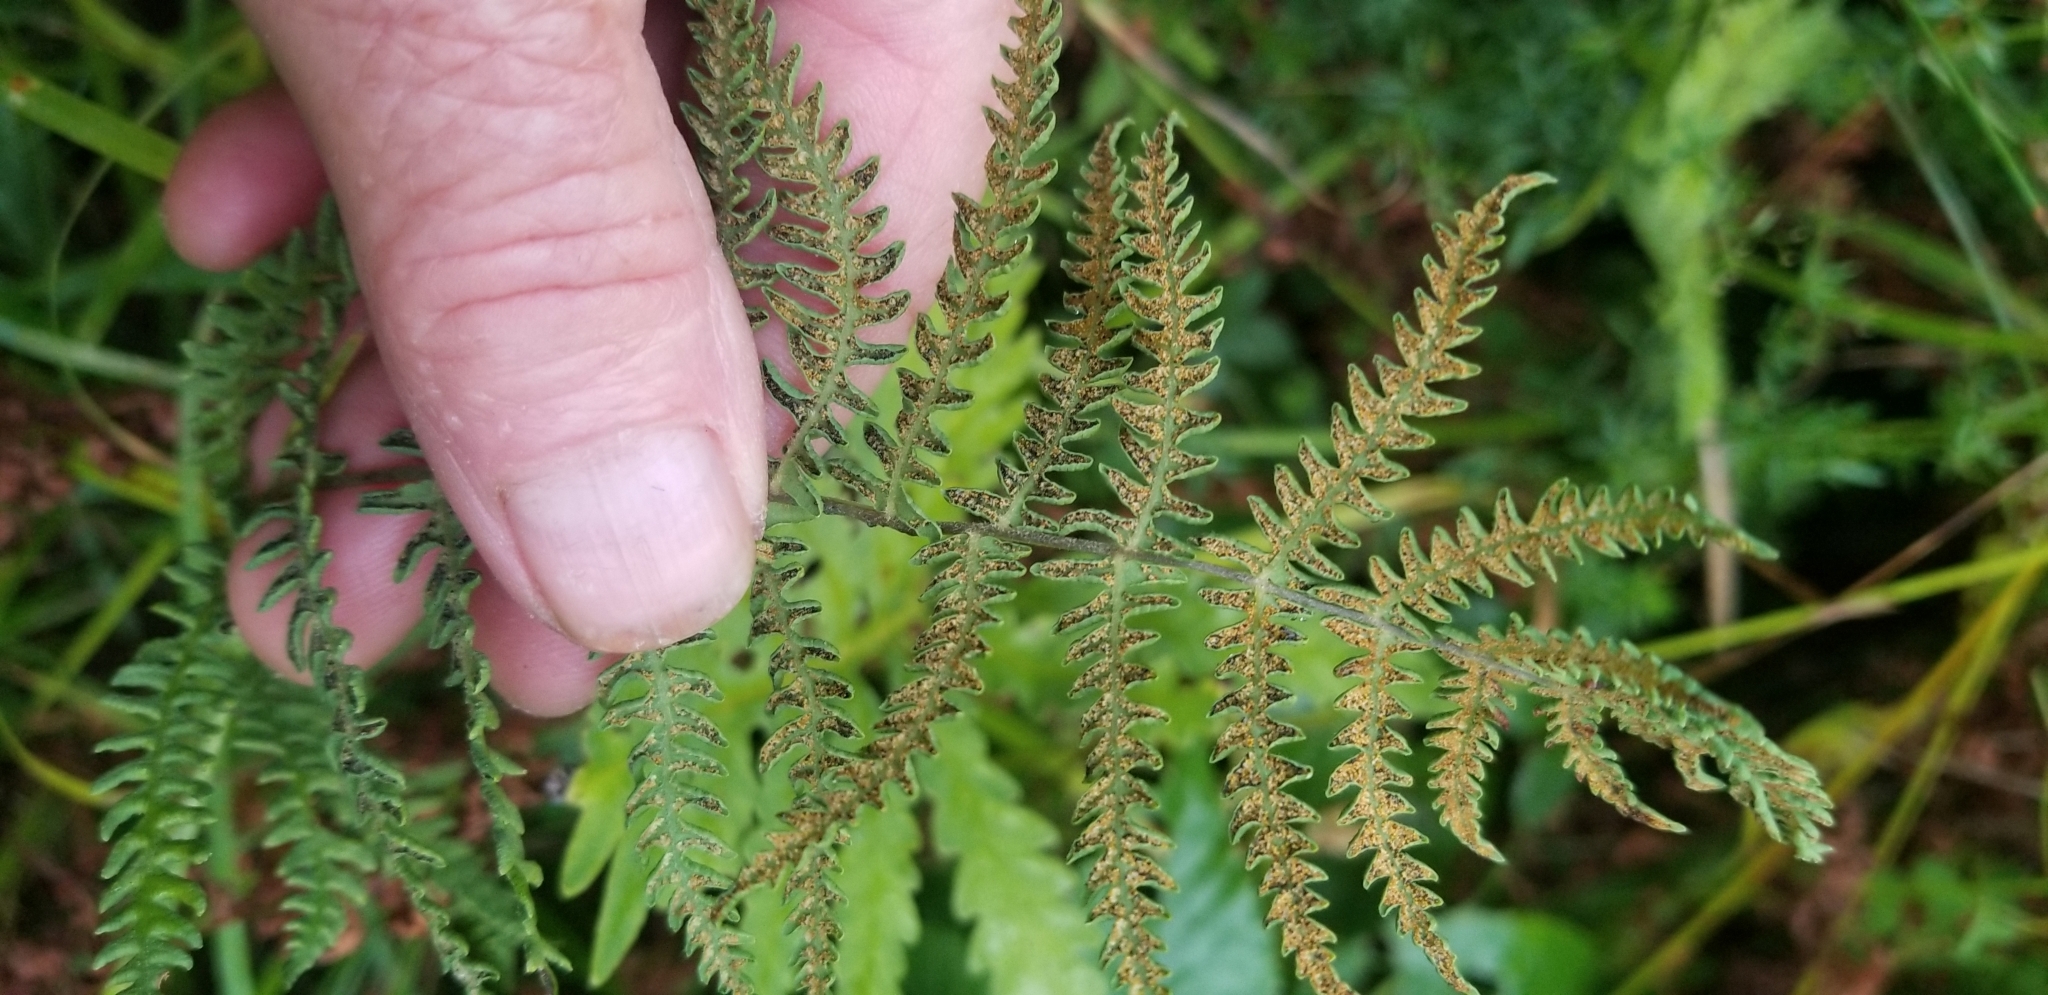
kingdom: Plantae
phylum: Tracheophyta
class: Polypodiopsida
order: Polypodiales
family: Thelypteridaceae
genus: Thelypteris
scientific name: Thelypteris palustris
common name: Marsh fern
